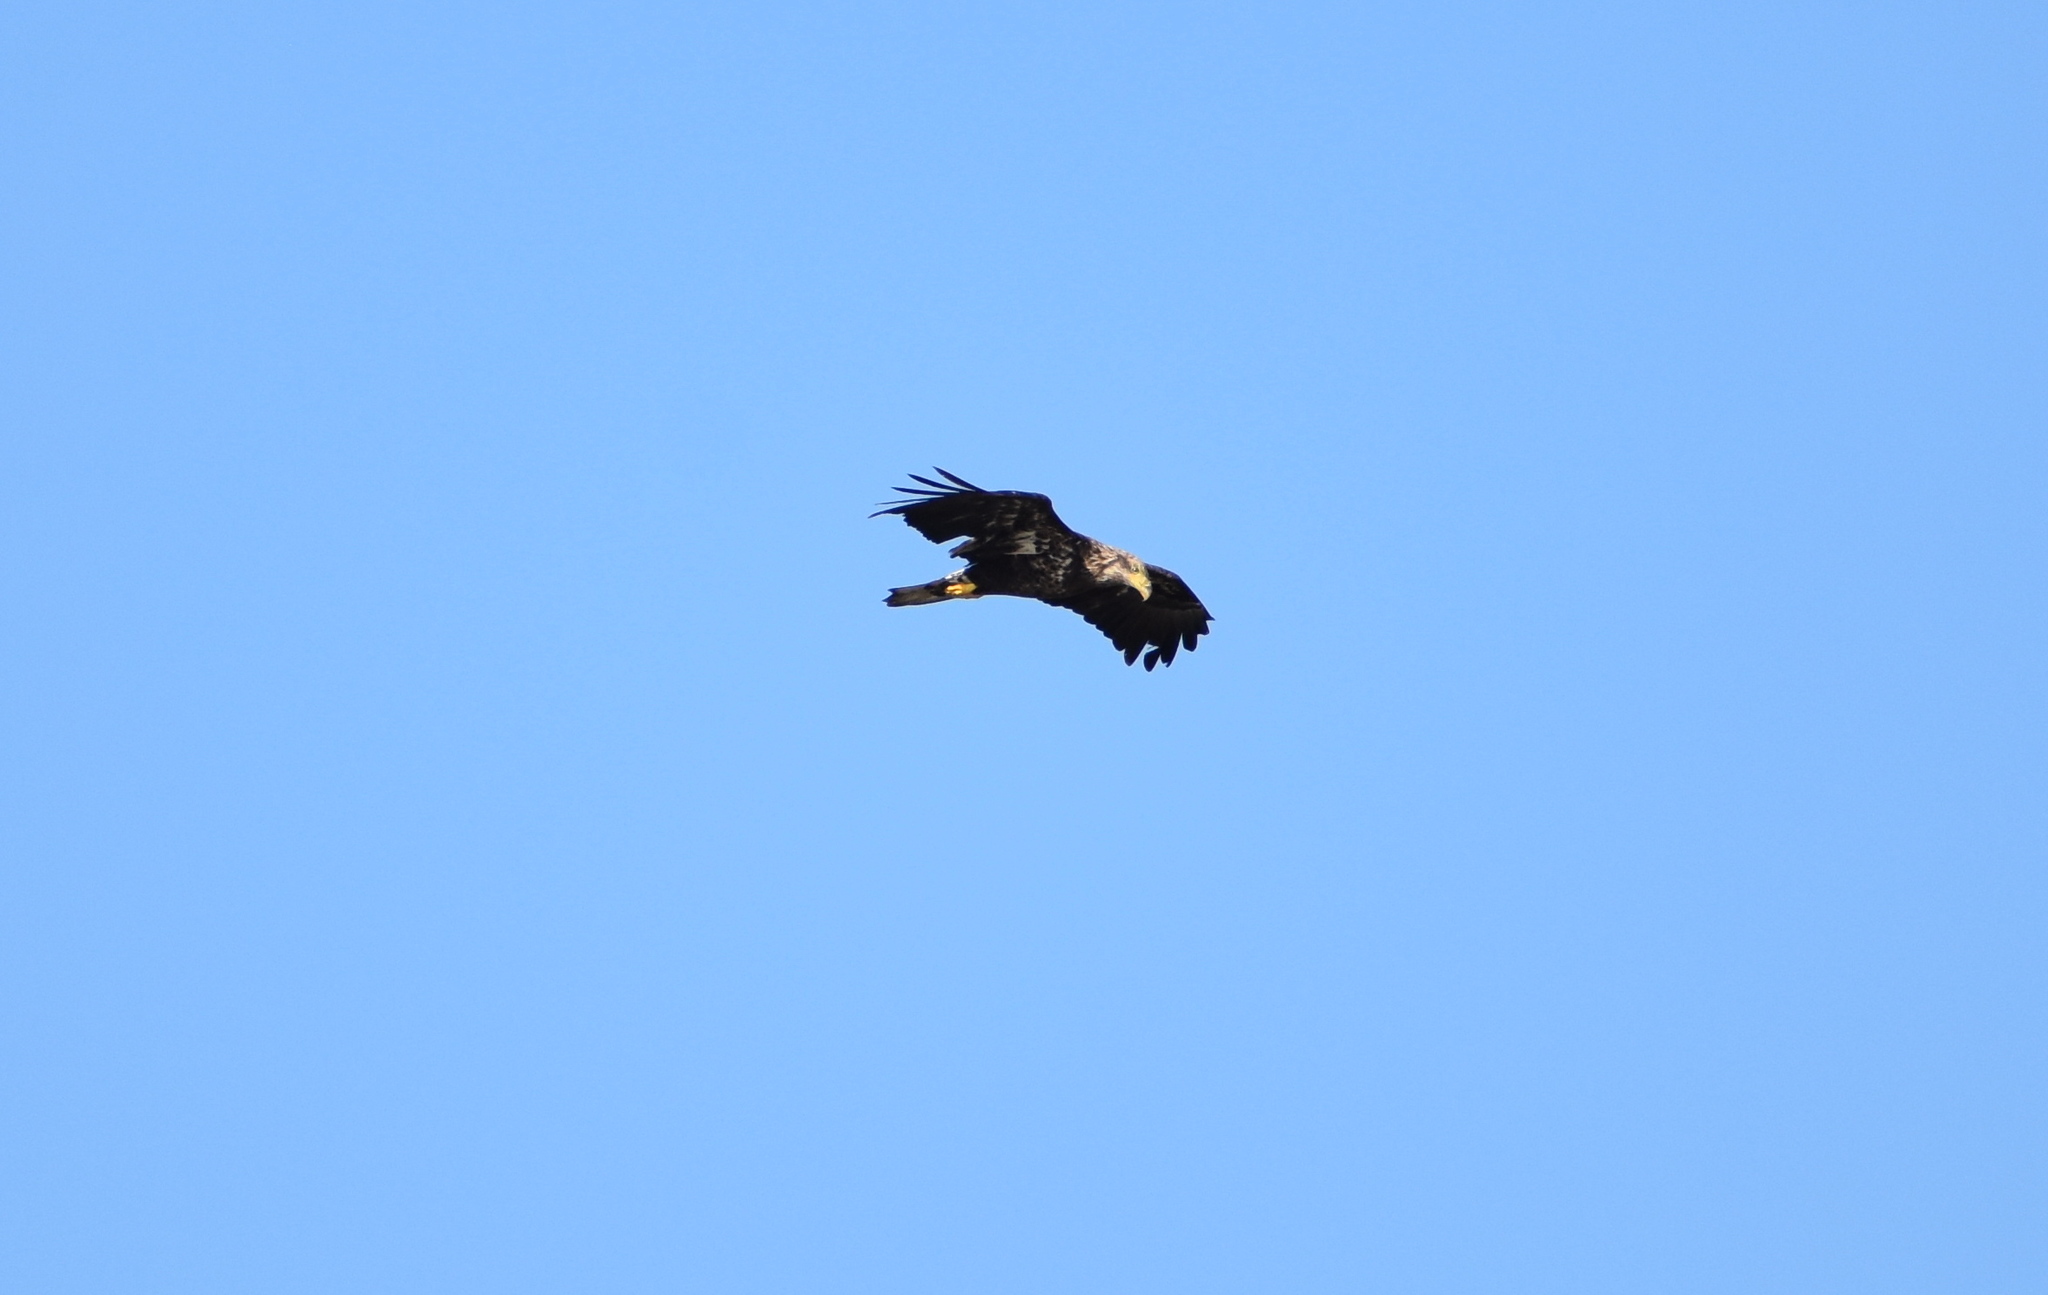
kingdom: Animalia
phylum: Chordata
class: Aves
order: Accipitriformes
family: Accipitridae
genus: Haliaeetus
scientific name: Haliaeetus leucocephalus
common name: Bald eagle
